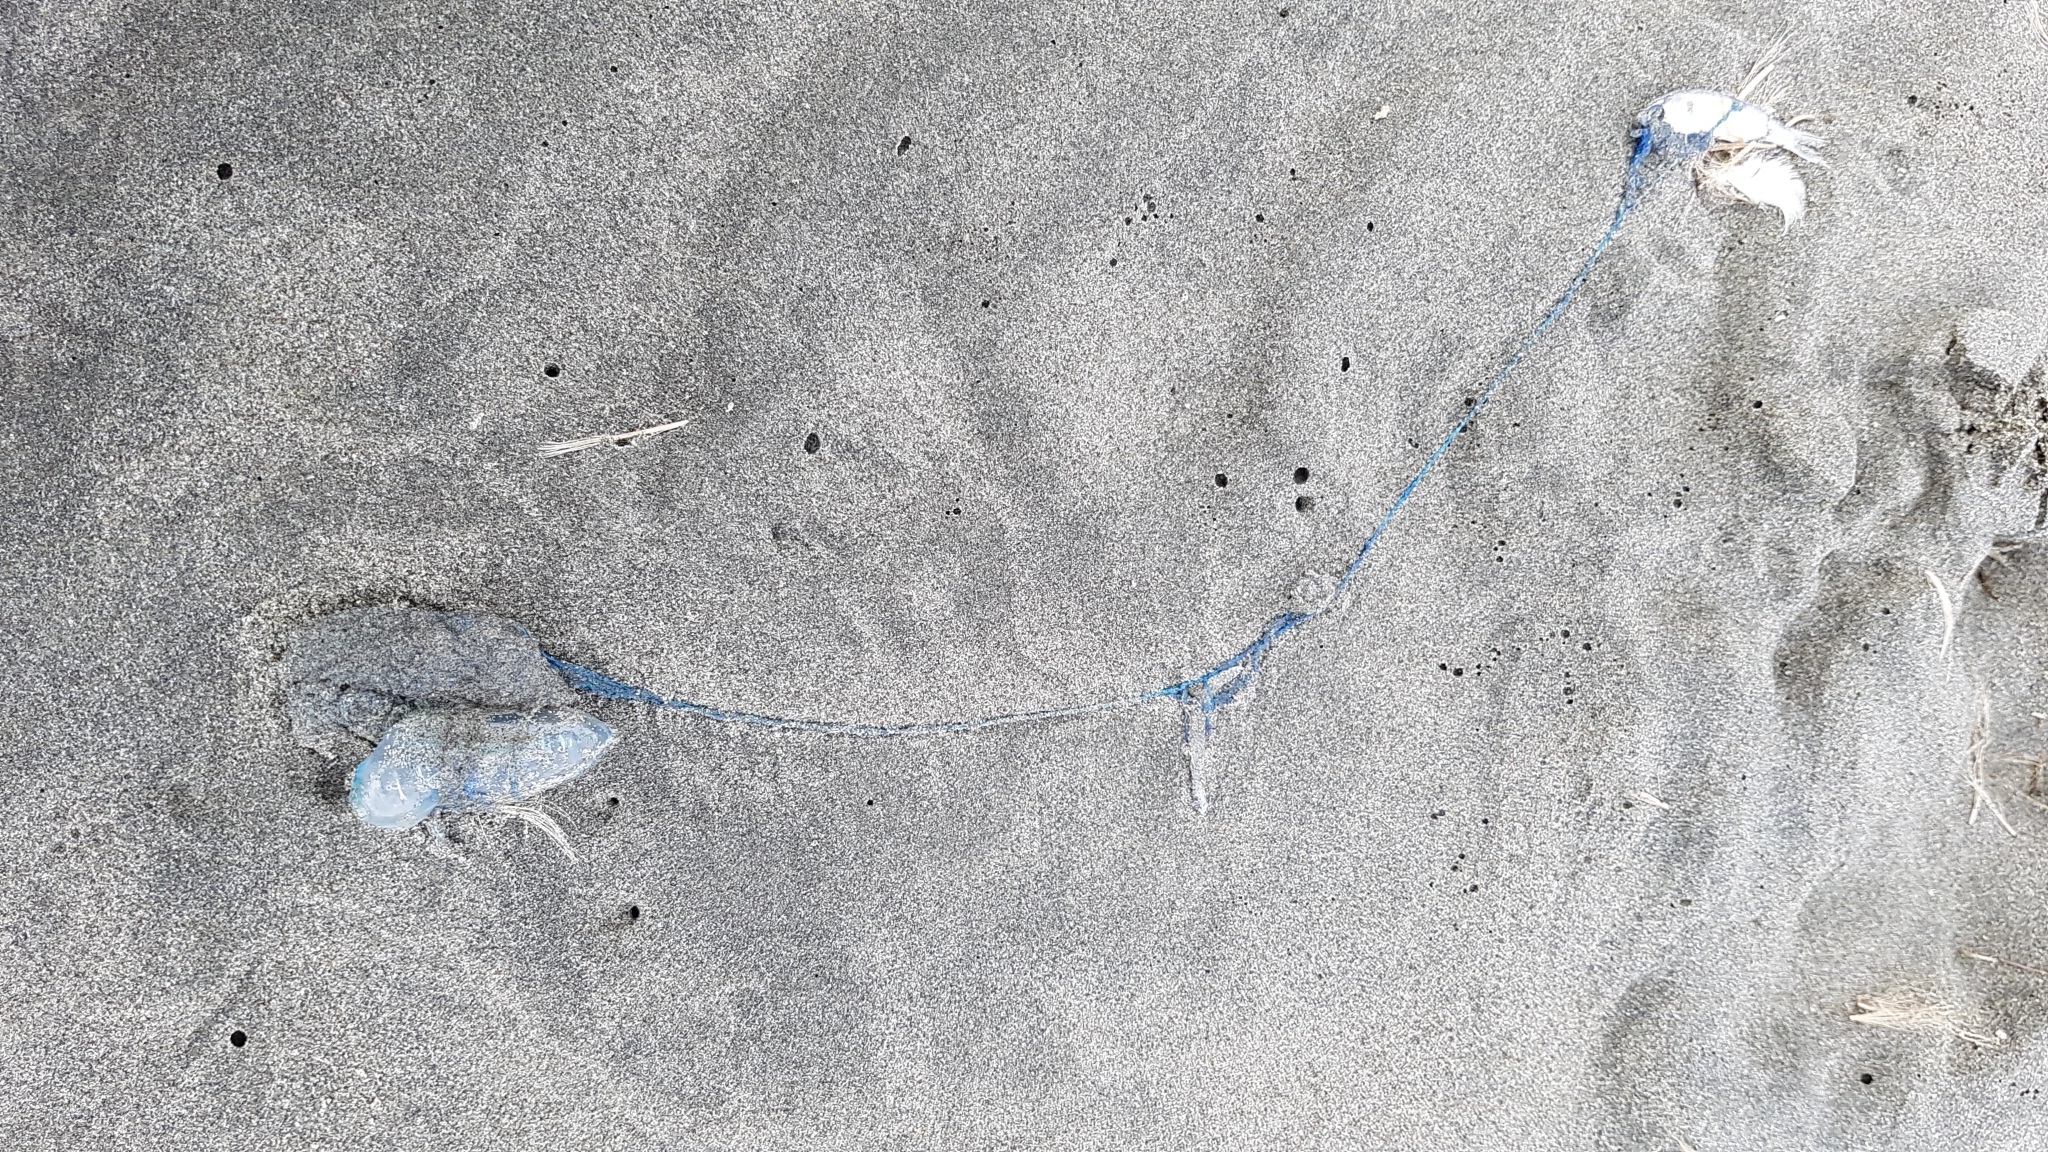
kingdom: Animalia
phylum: Cnidaria
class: Hydrozoa
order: Siphonophorae
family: Physaliidae
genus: Physalia
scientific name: Physalia physalis
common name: Portuguese man-of-war
